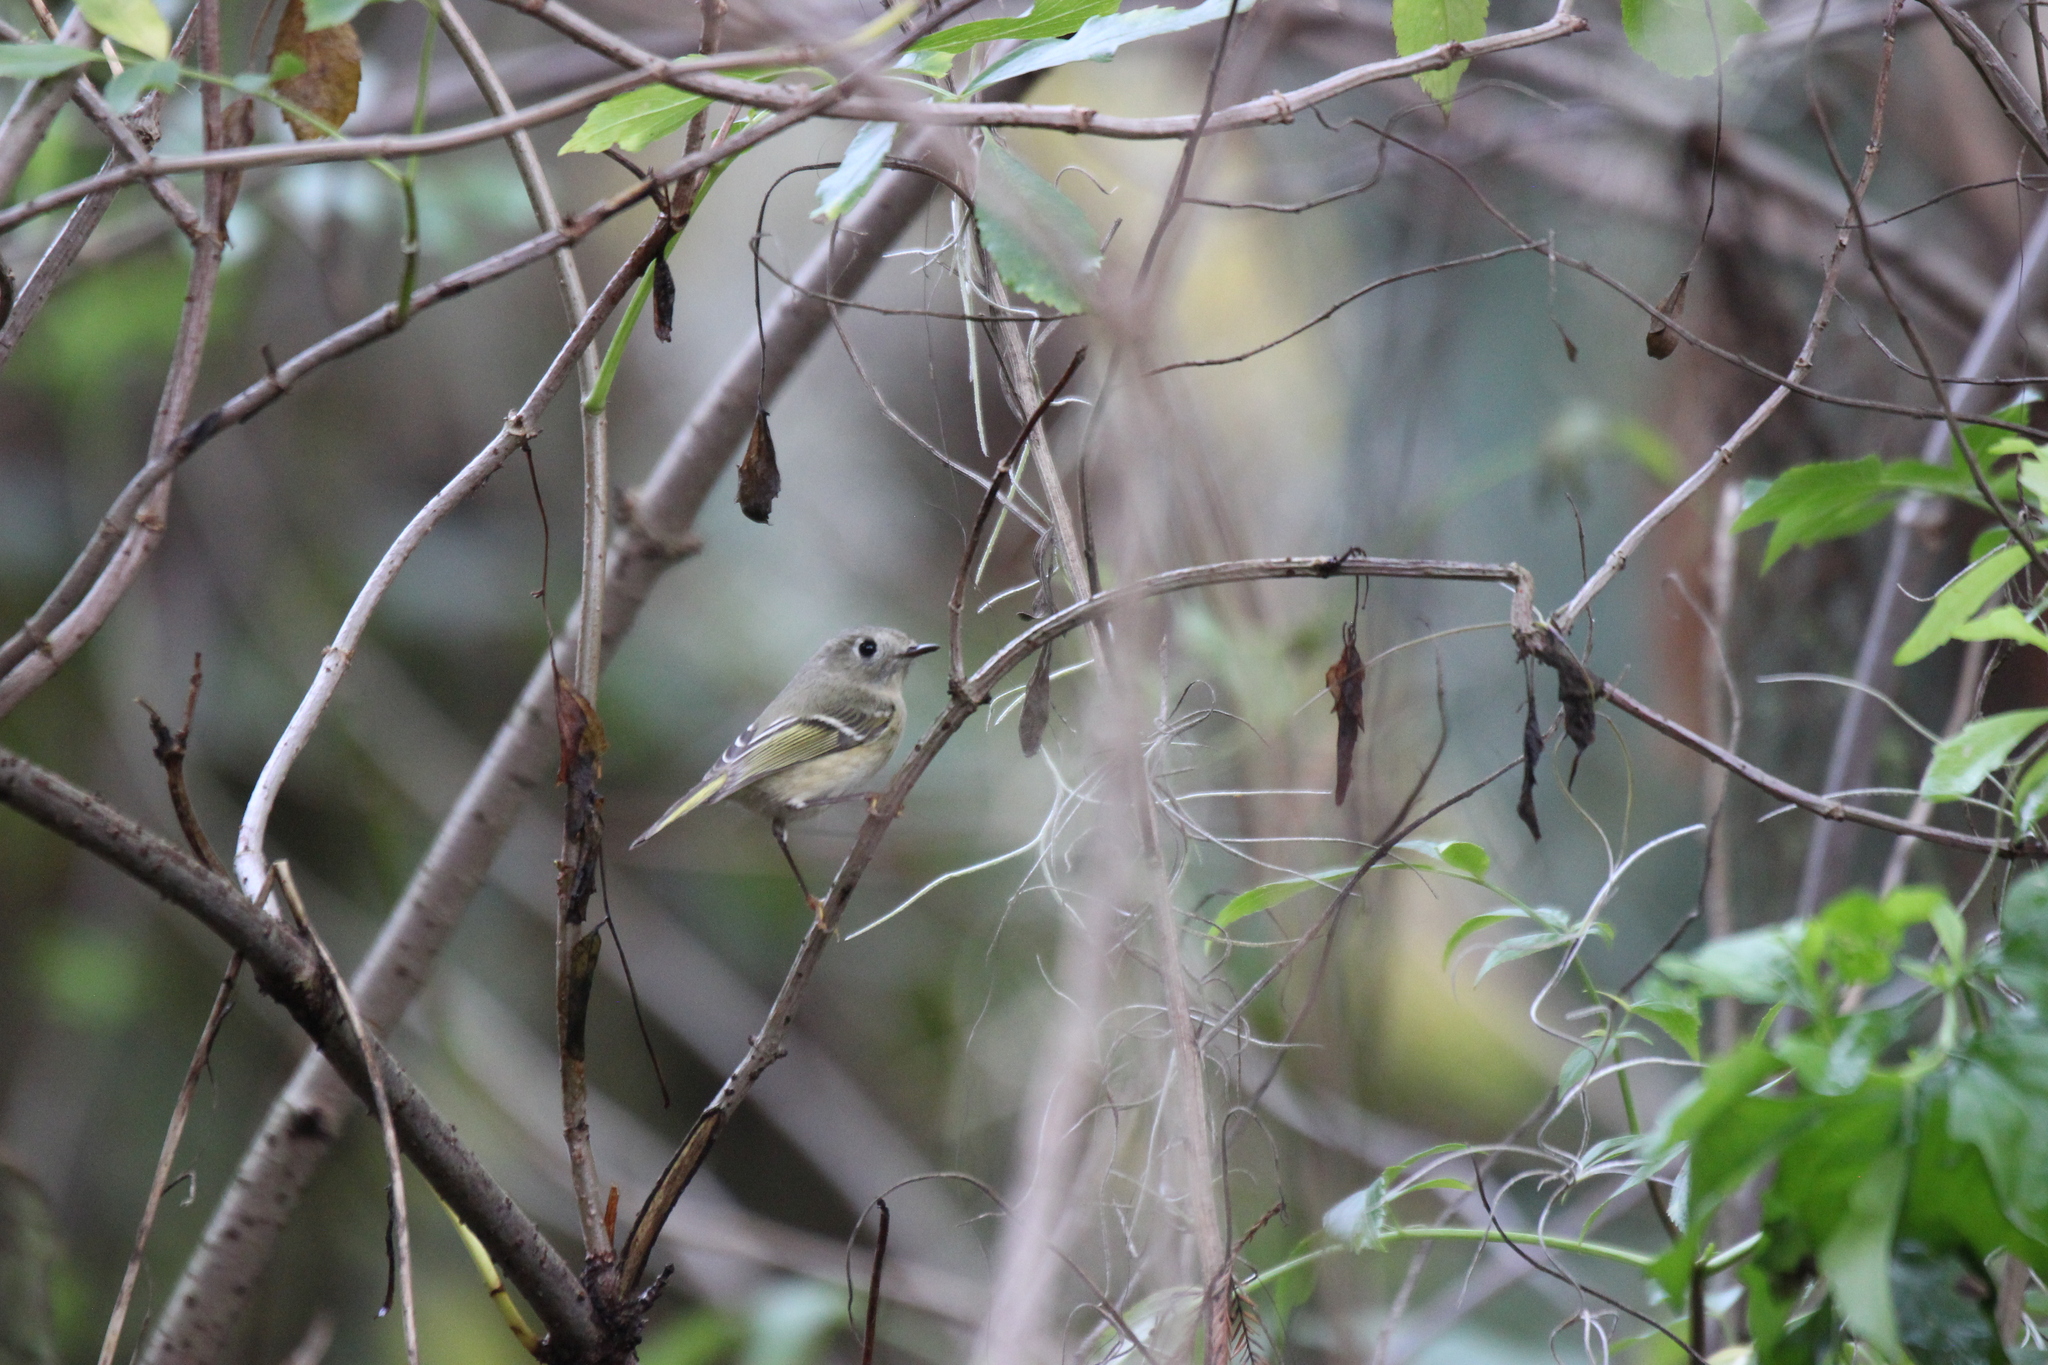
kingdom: Animalia
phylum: Chordata
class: Aves
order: Passeriformes
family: Regulidae
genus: Regulus
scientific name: Regulus calendula
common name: Ruby-crowned kinglet
